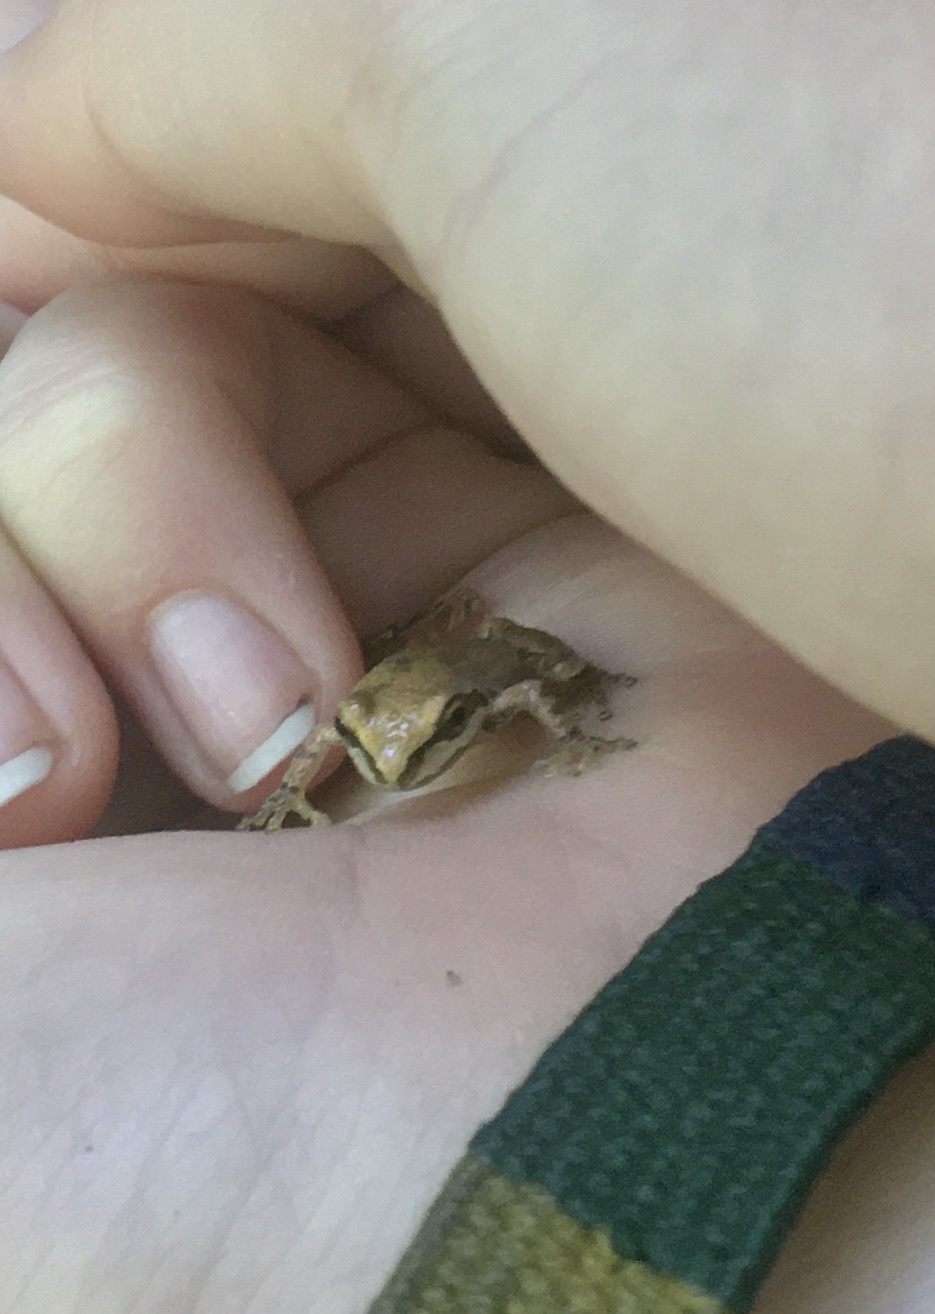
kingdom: Animalia
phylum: Chordata
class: Amphibia
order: Anura
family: Hylidae
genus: Pseudacris
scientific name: Pseudacris regilla
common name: Pacific chorus frog
